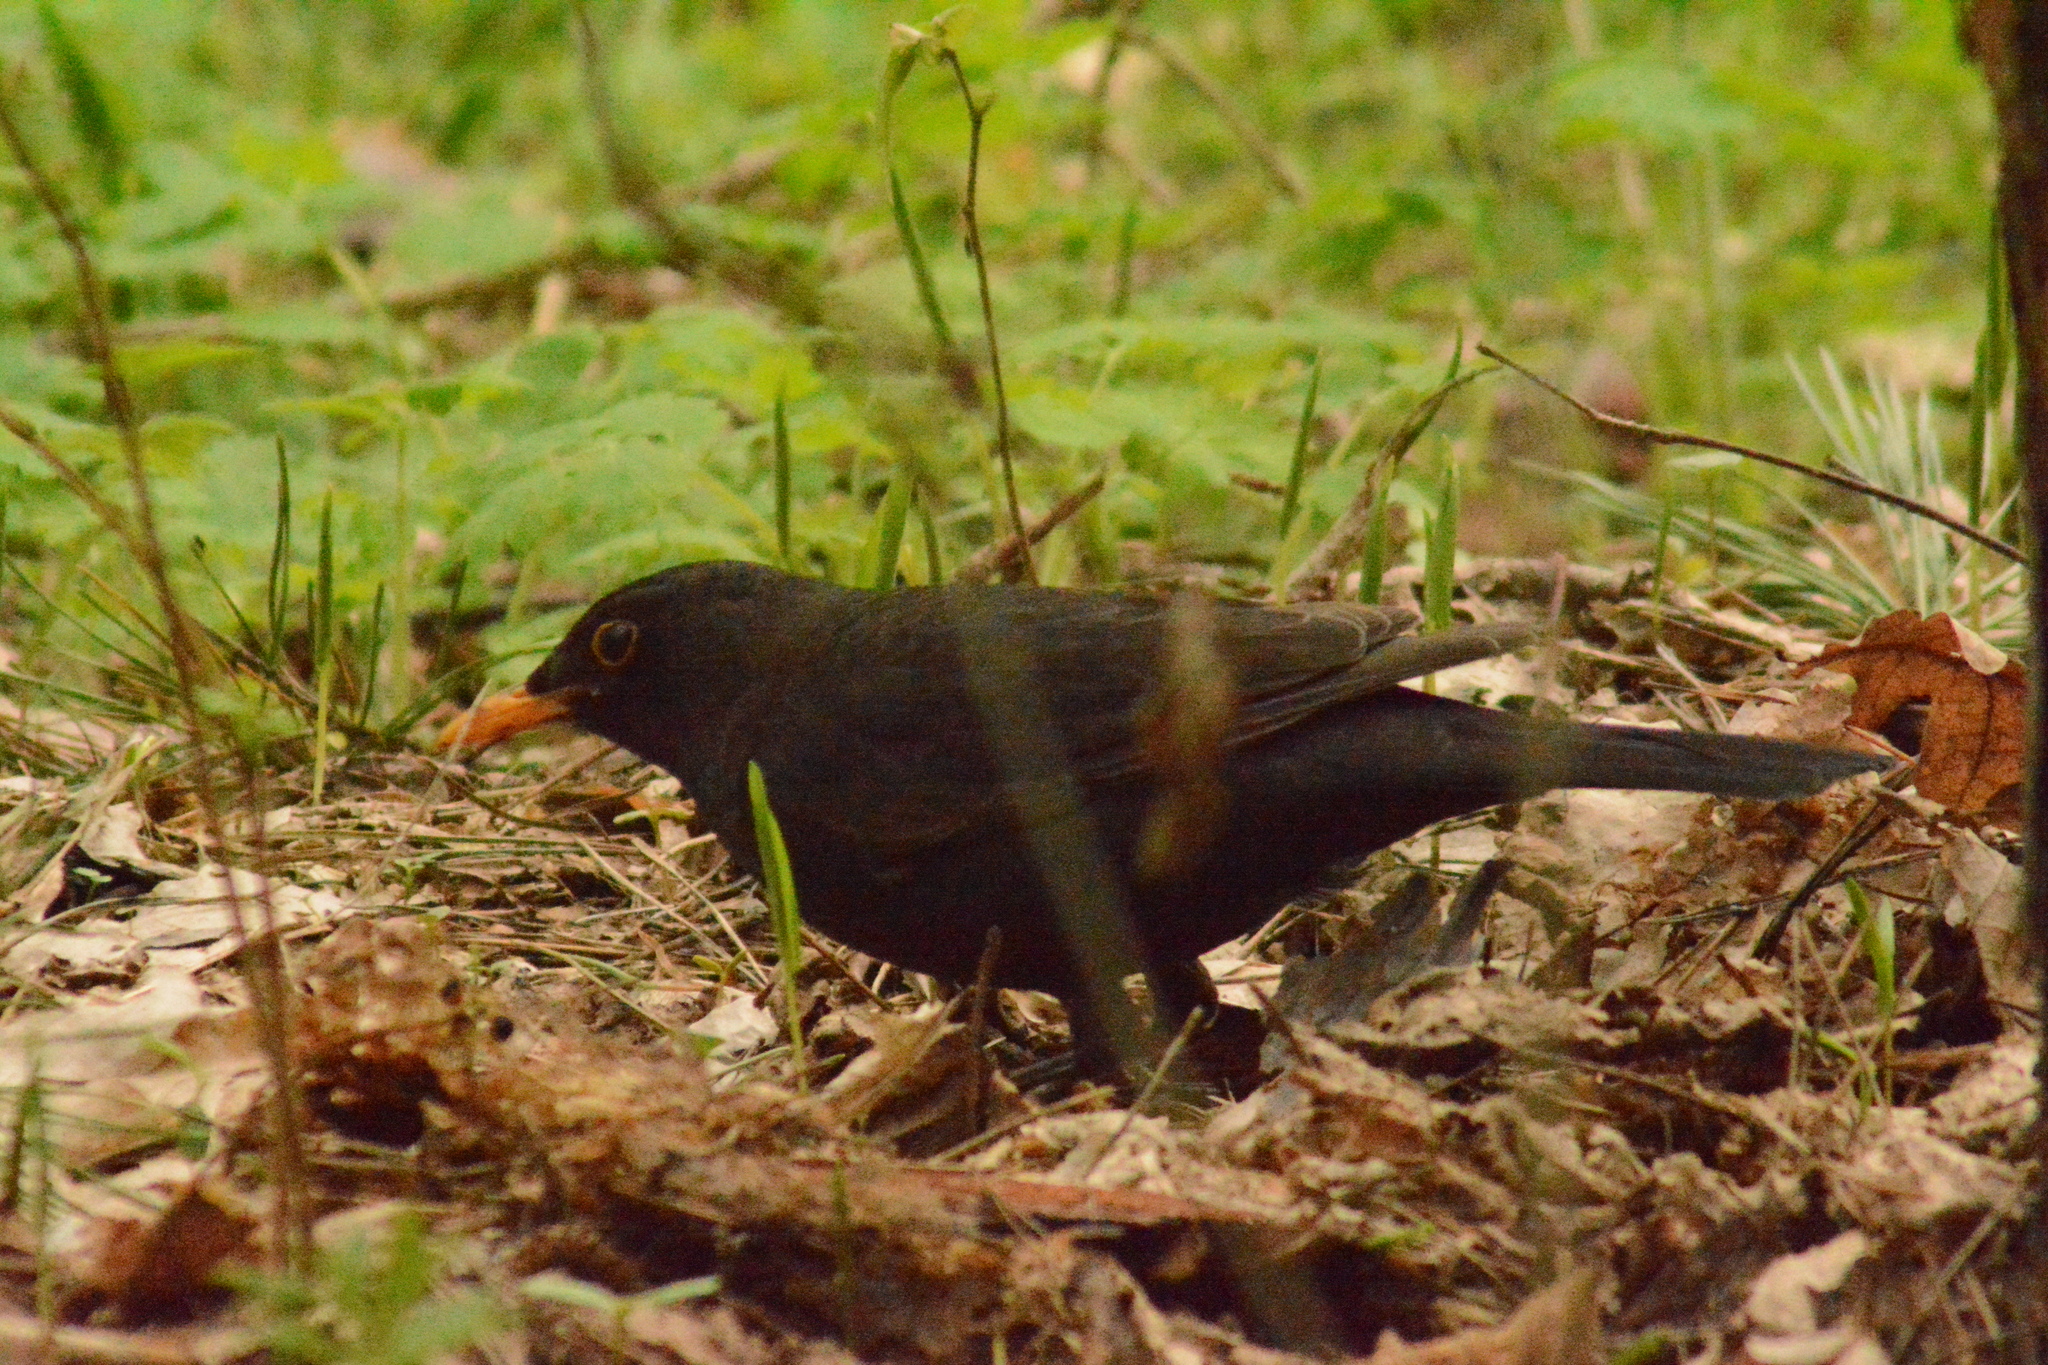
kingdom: Animalia
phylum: Chordata
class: Aves
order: Passeriformes
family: Turdidae
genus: Turdus
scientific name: Turdus merula
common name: Common blackbird
